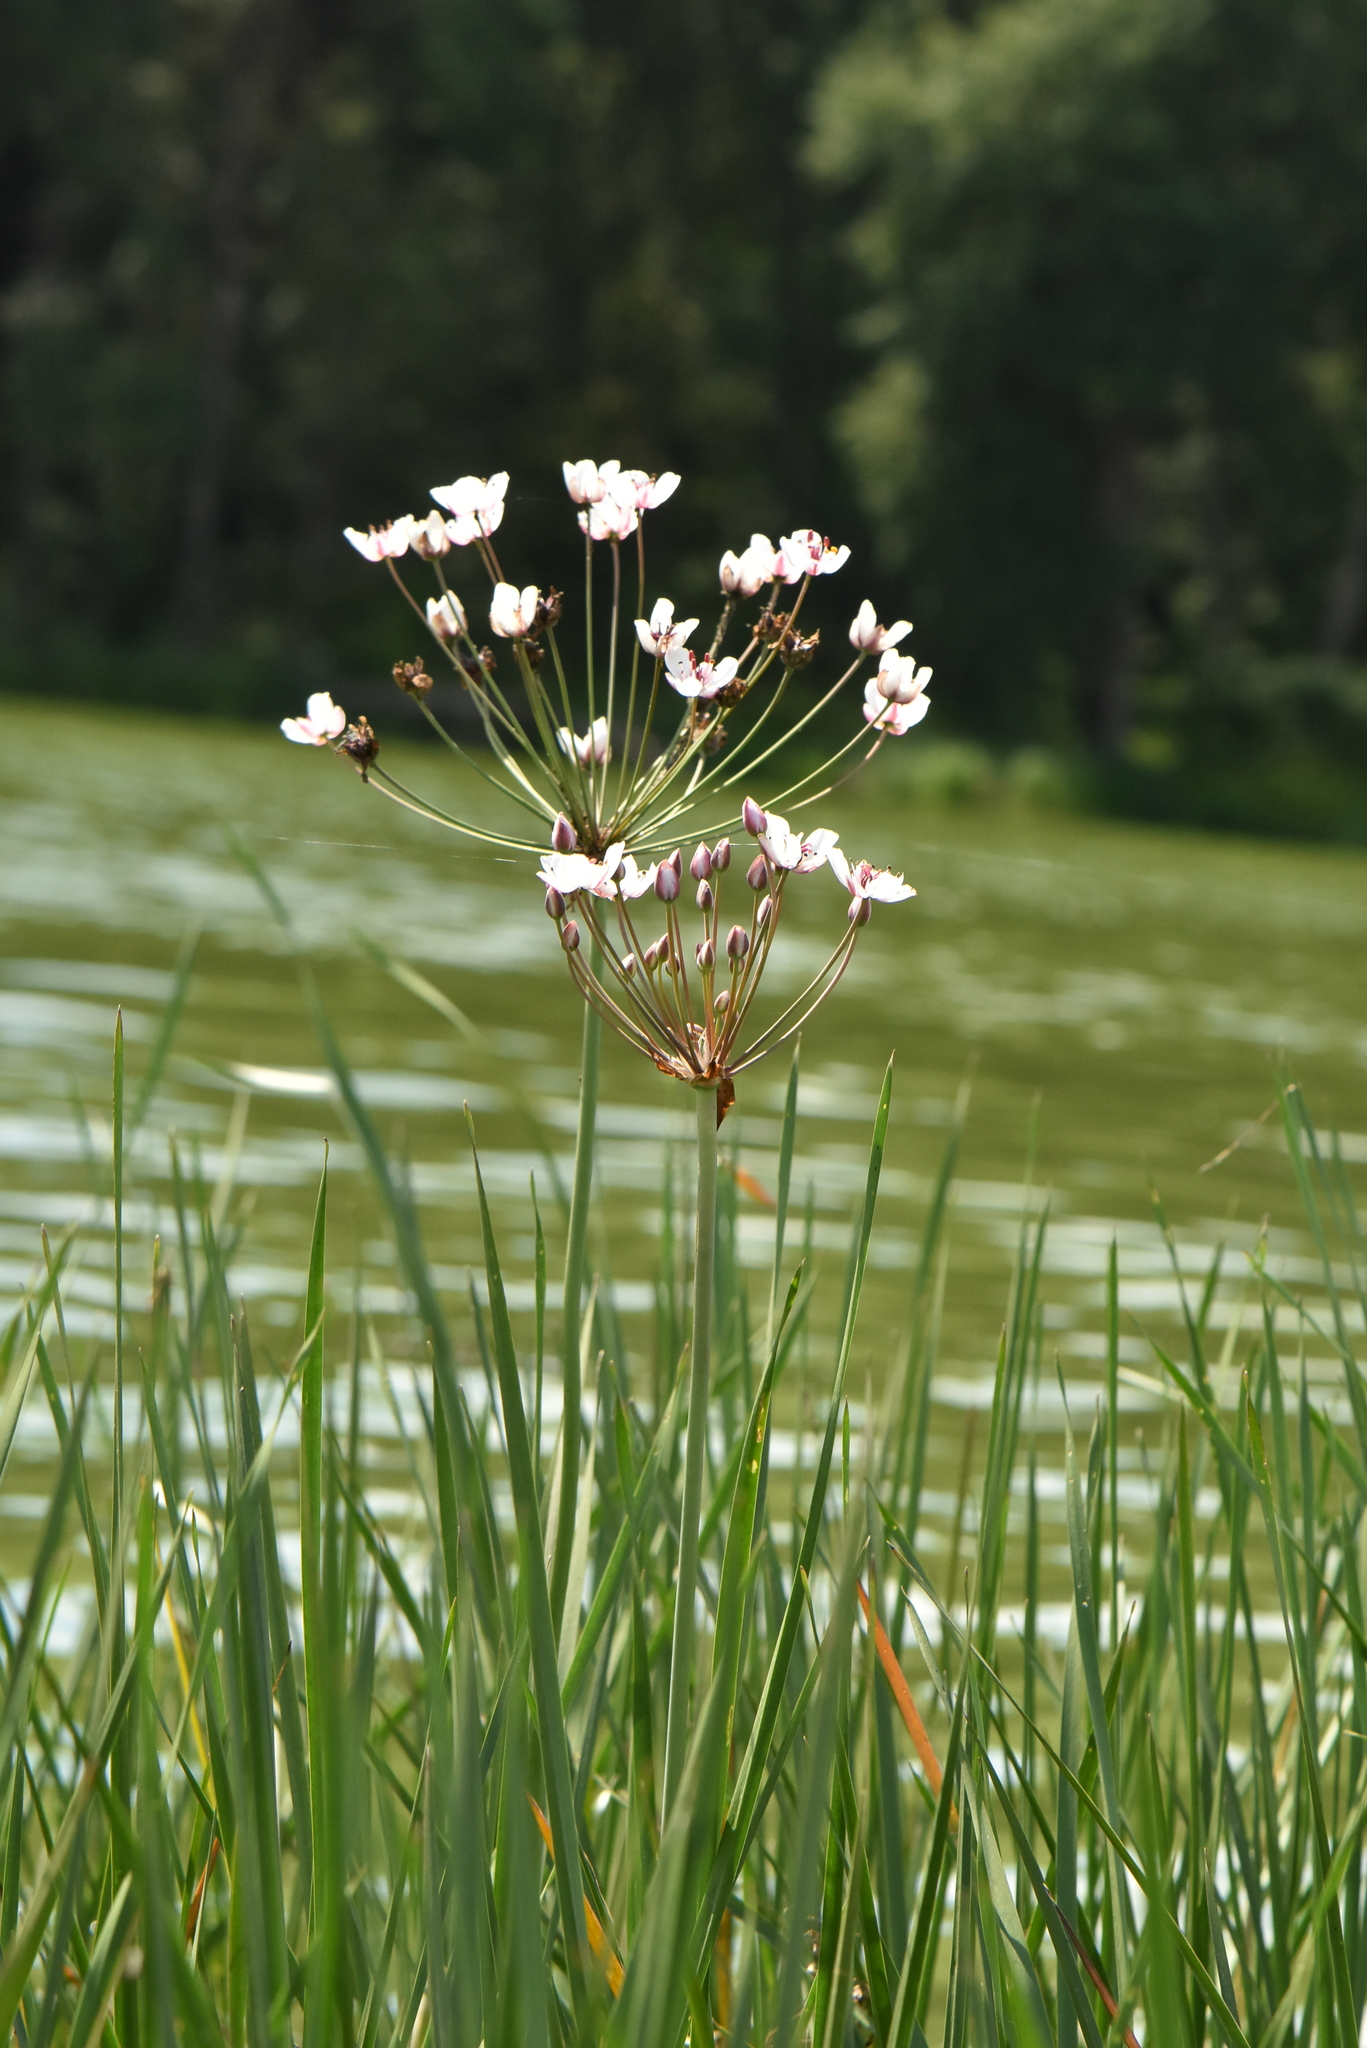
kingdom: Plantae
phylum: Tracheophyta
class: Liliopsida
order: Alismatales
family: Butomaceae
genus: Butomus
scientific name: Butomus umbellatus
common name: Flowering-rush
